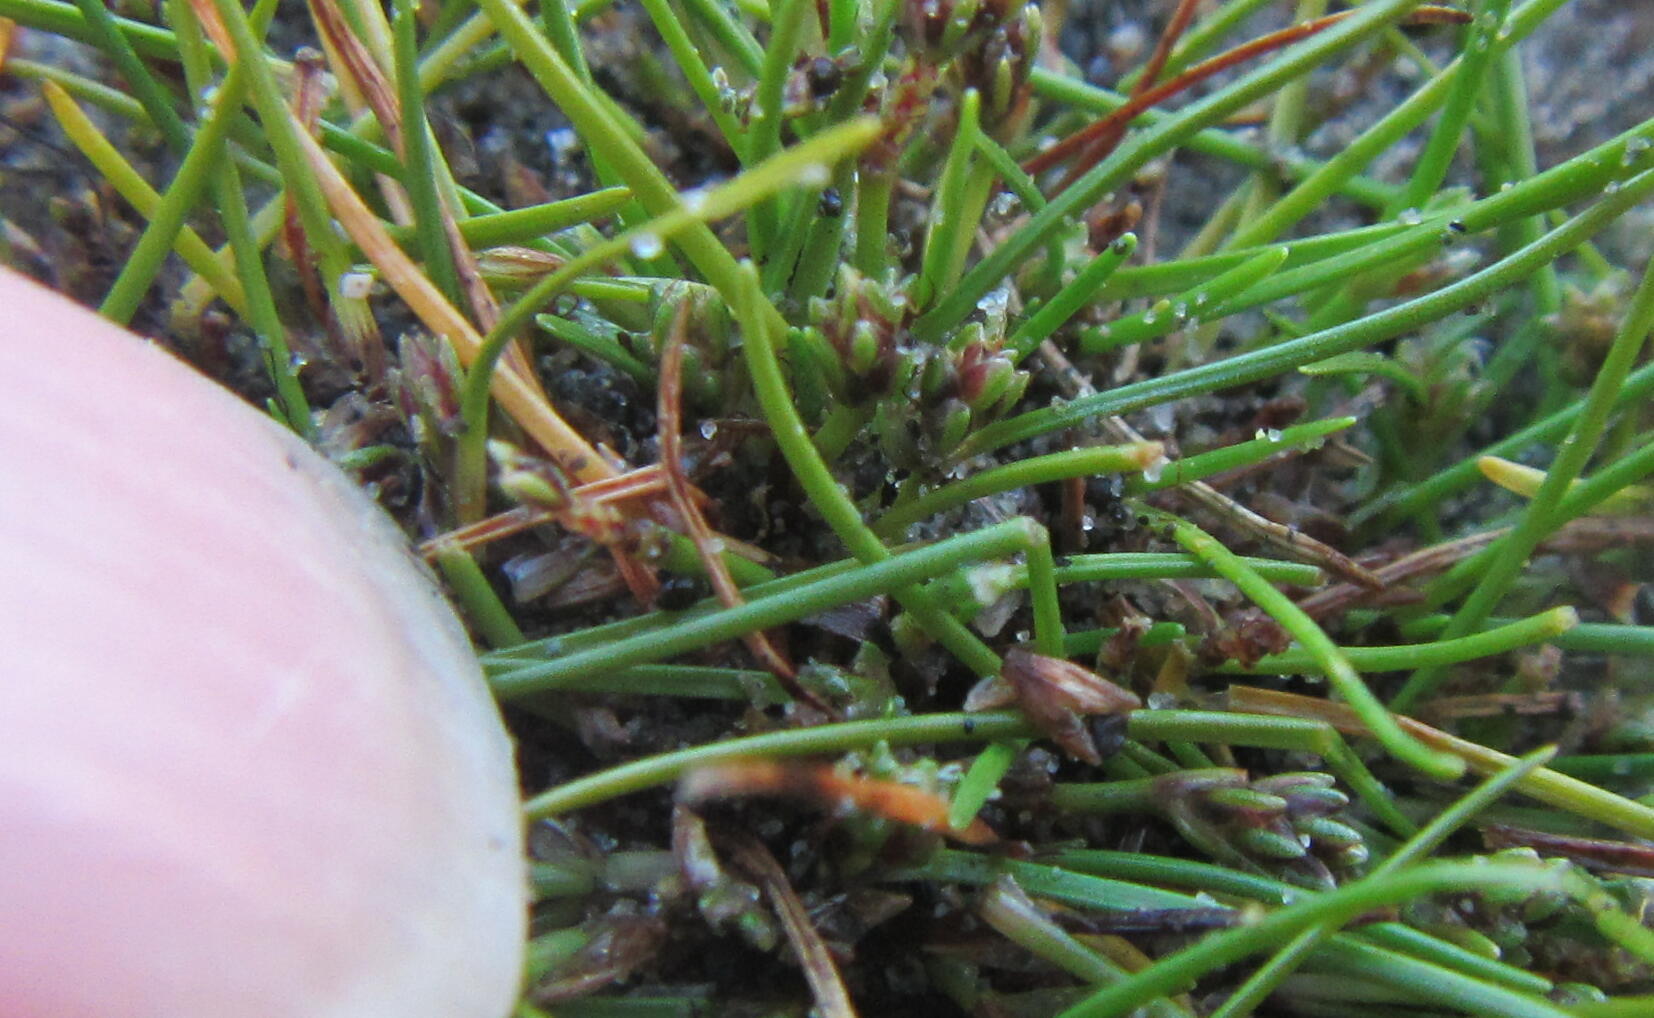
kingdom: Plantae
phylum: Tracheophyta
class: Liliopsida
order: Poales
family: Cyperaceae
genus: Isolepis
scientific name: Isolepis basilaris
